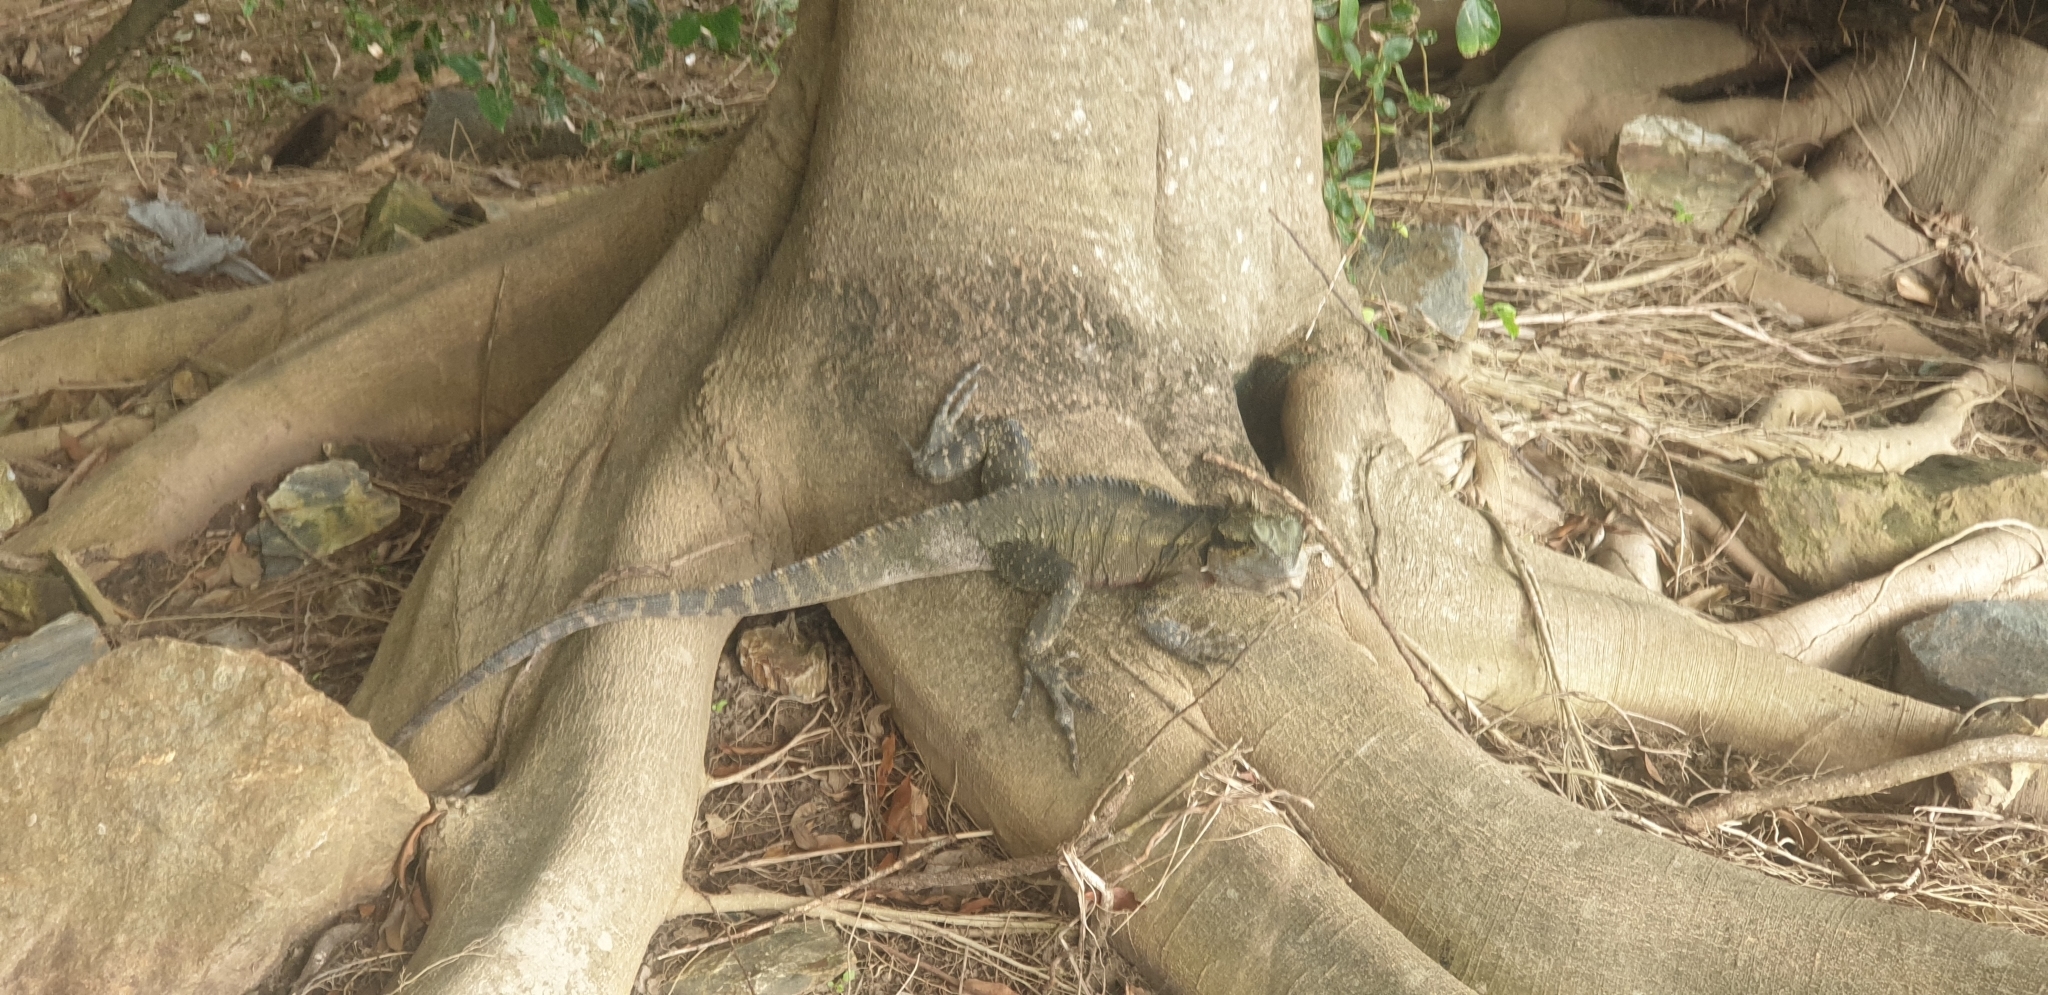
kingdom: Animalia
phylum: Chordata
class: Squamata
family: Agamidae
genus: Intellagama
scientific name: Intellagama lesueurii
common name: Eastern water dragon
